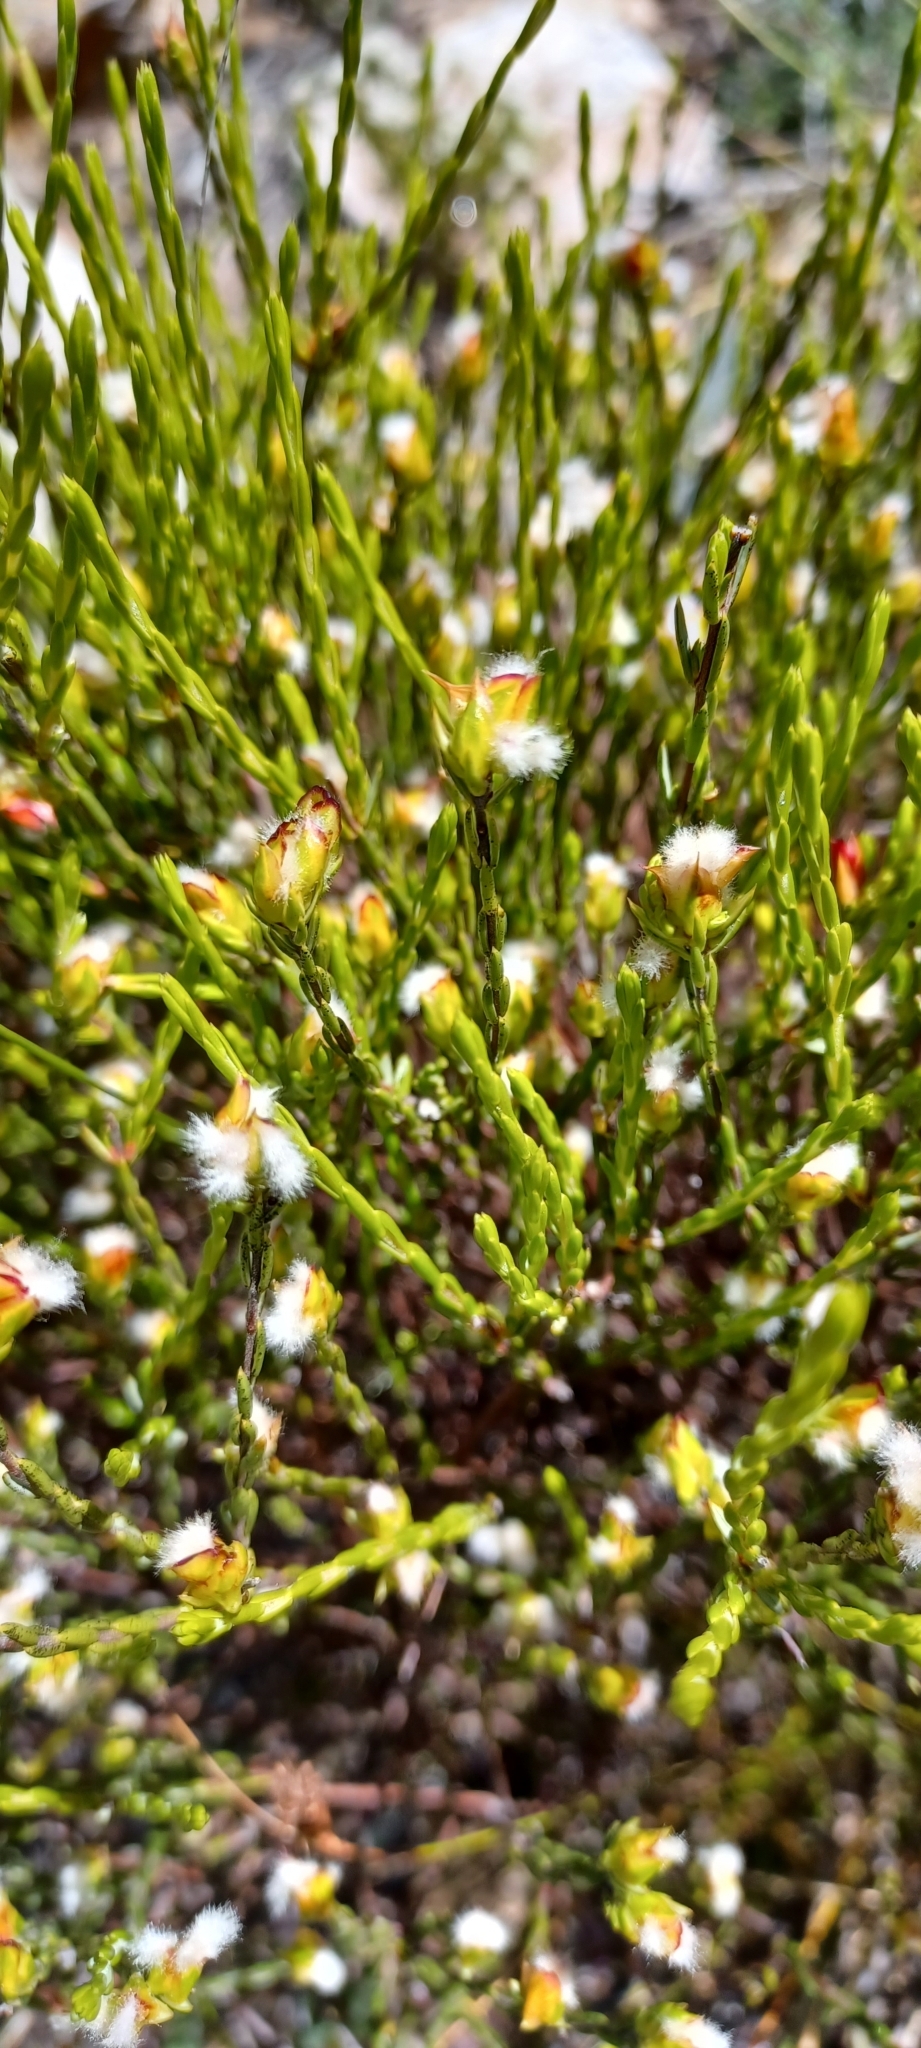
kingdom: Plantae
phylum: Tracheophyta
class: Magnoliopsida
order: Malvales
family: Thymelaeaceae
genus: Lachnaea
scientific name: Lachnaea marlothii
